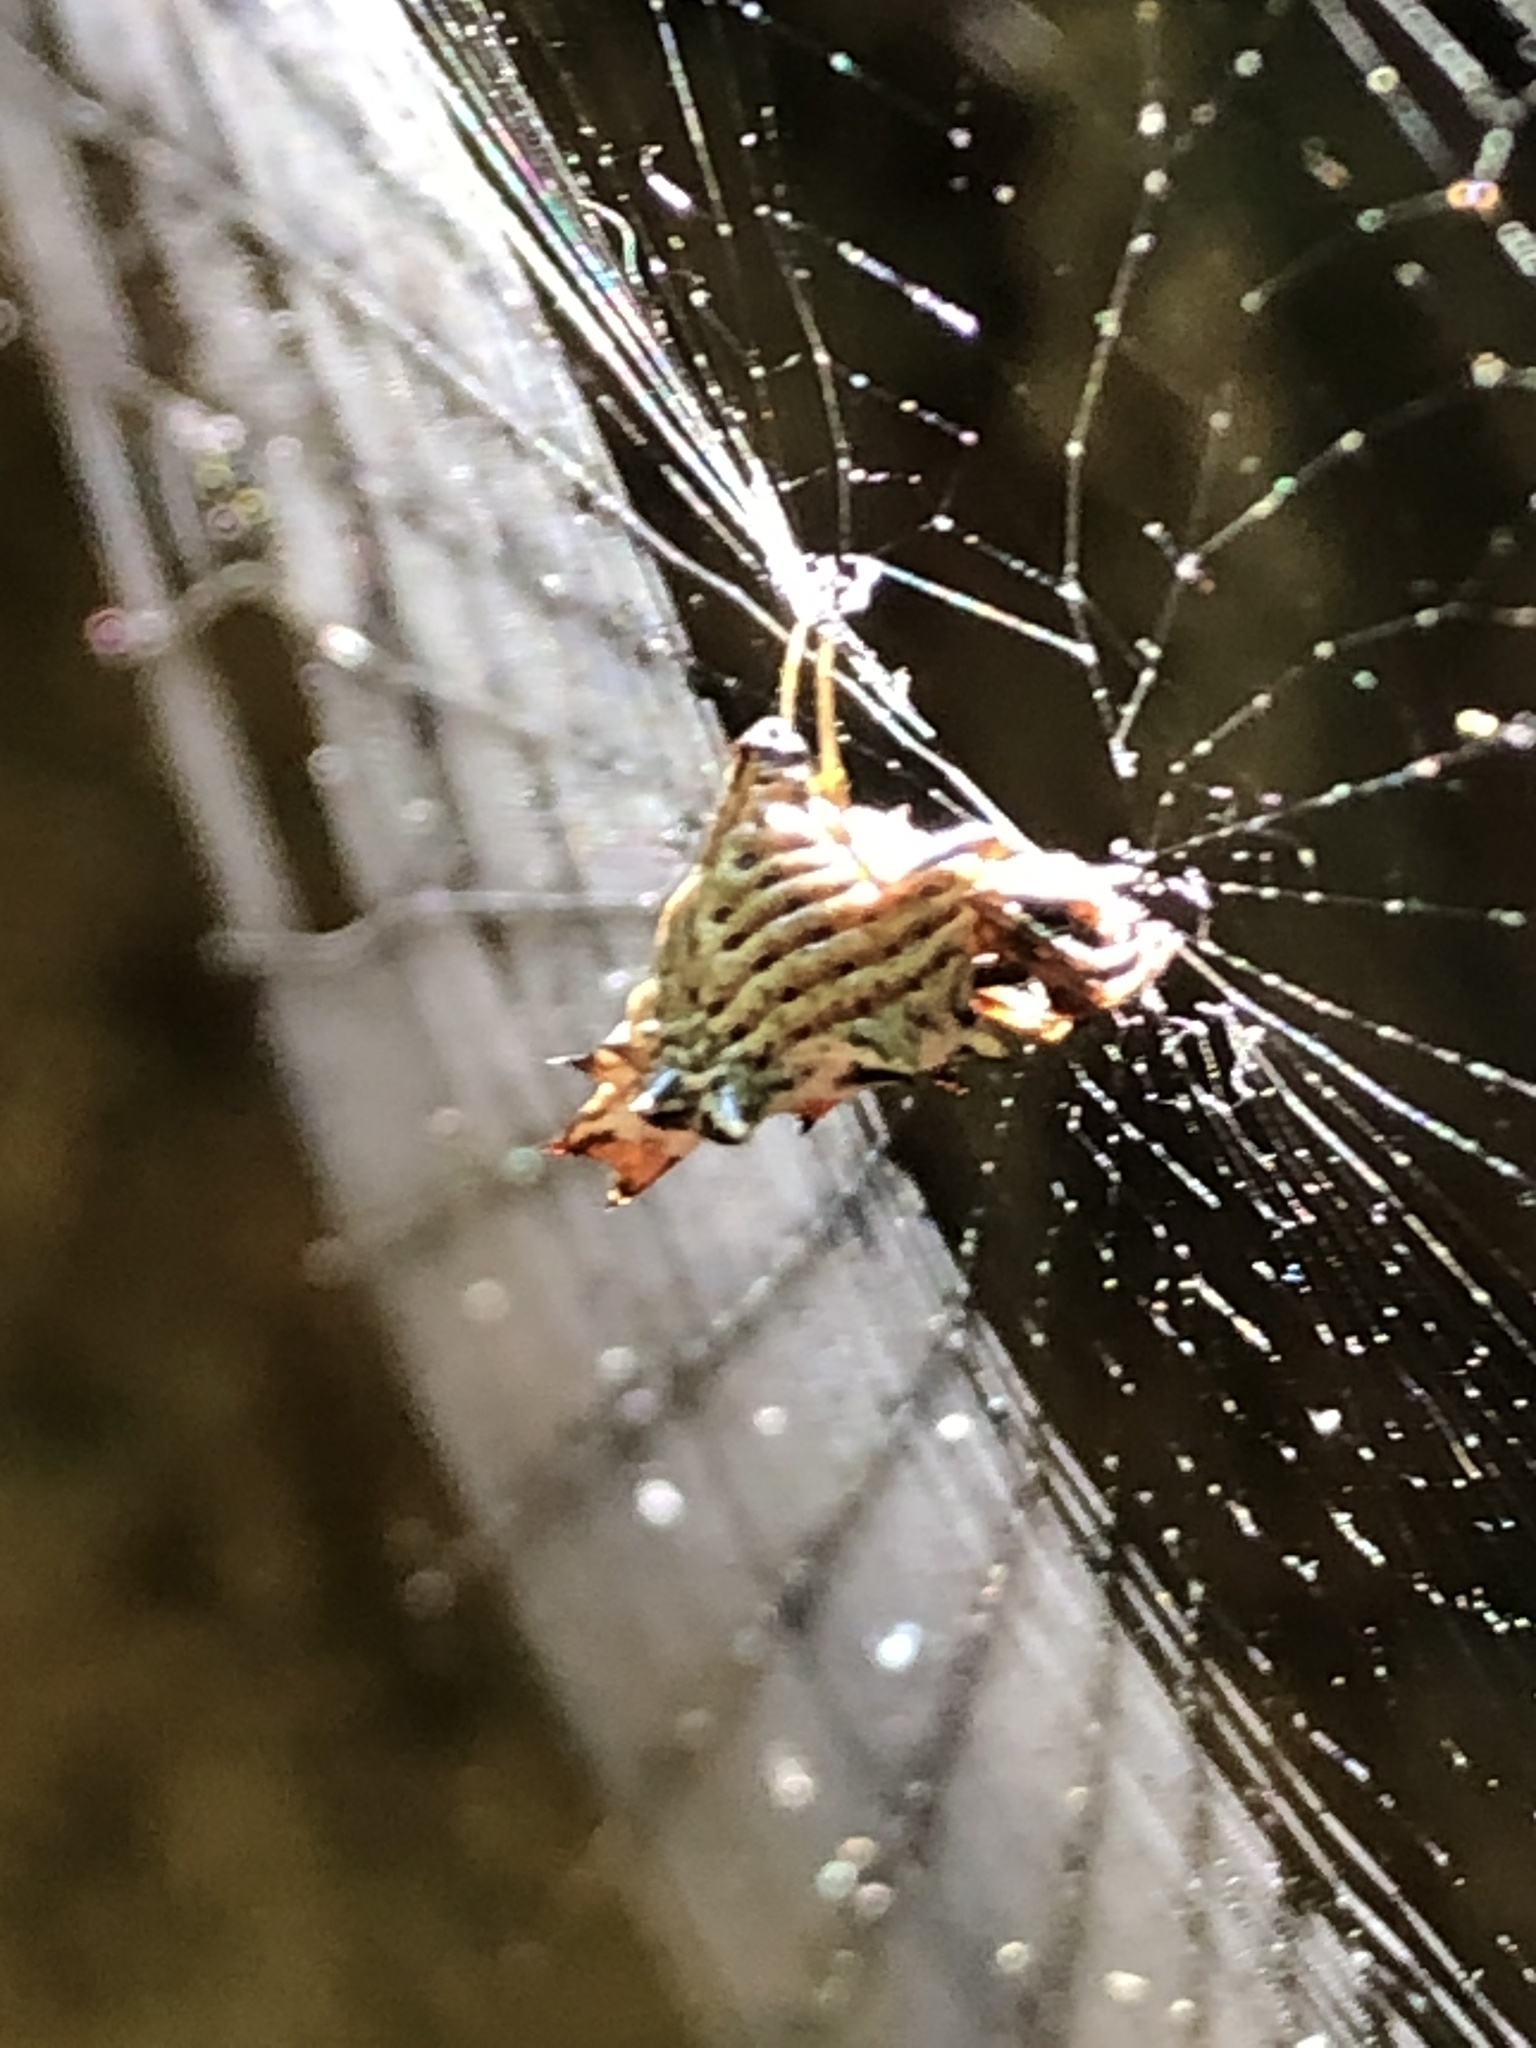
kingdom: Animalia
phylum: Arthropoda
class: Arachnida
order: Araneae
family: Araneidae
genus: Micrathena
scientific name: Micrathena gracilis
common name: Orb weavers
